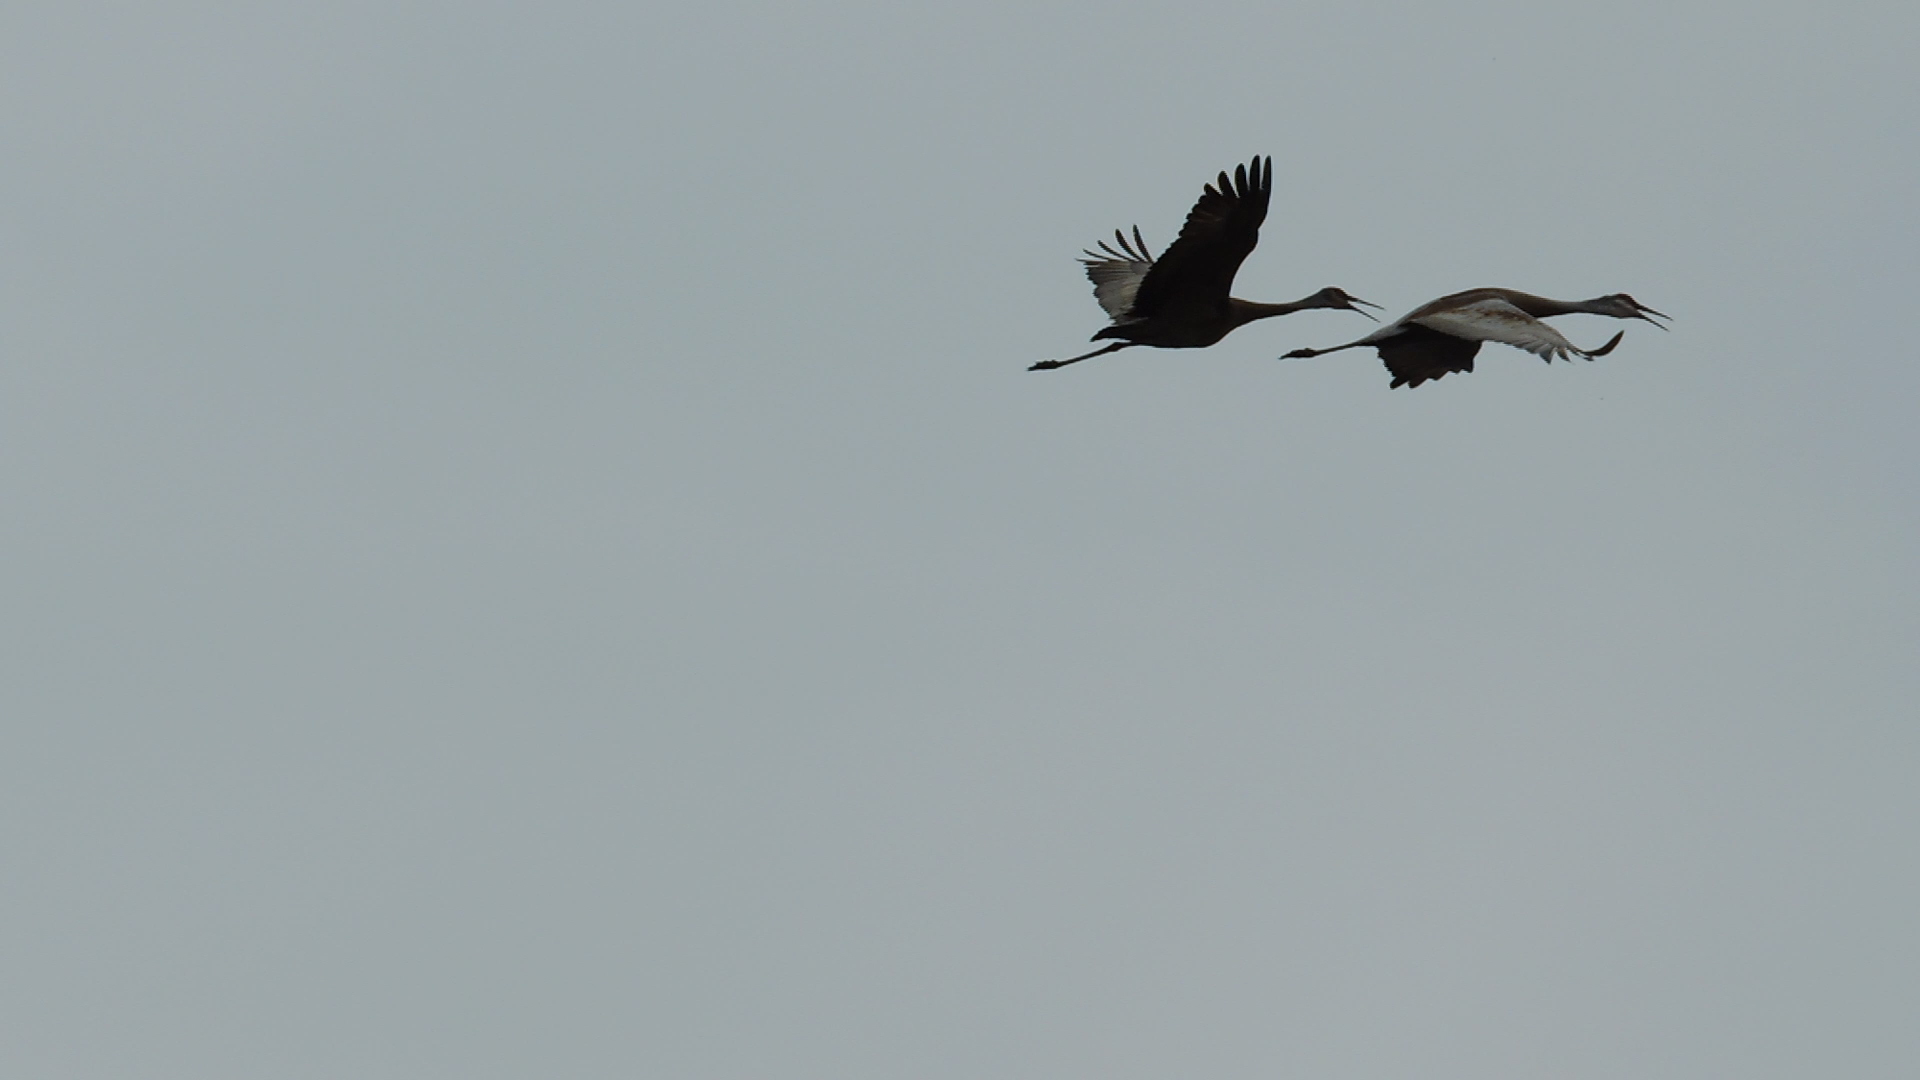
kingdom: Animalia
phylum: Chordata
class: Aves
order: Gruiformes
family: Gruidae
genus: Grus
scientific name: Grus canadensis
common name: Sandhill crane
